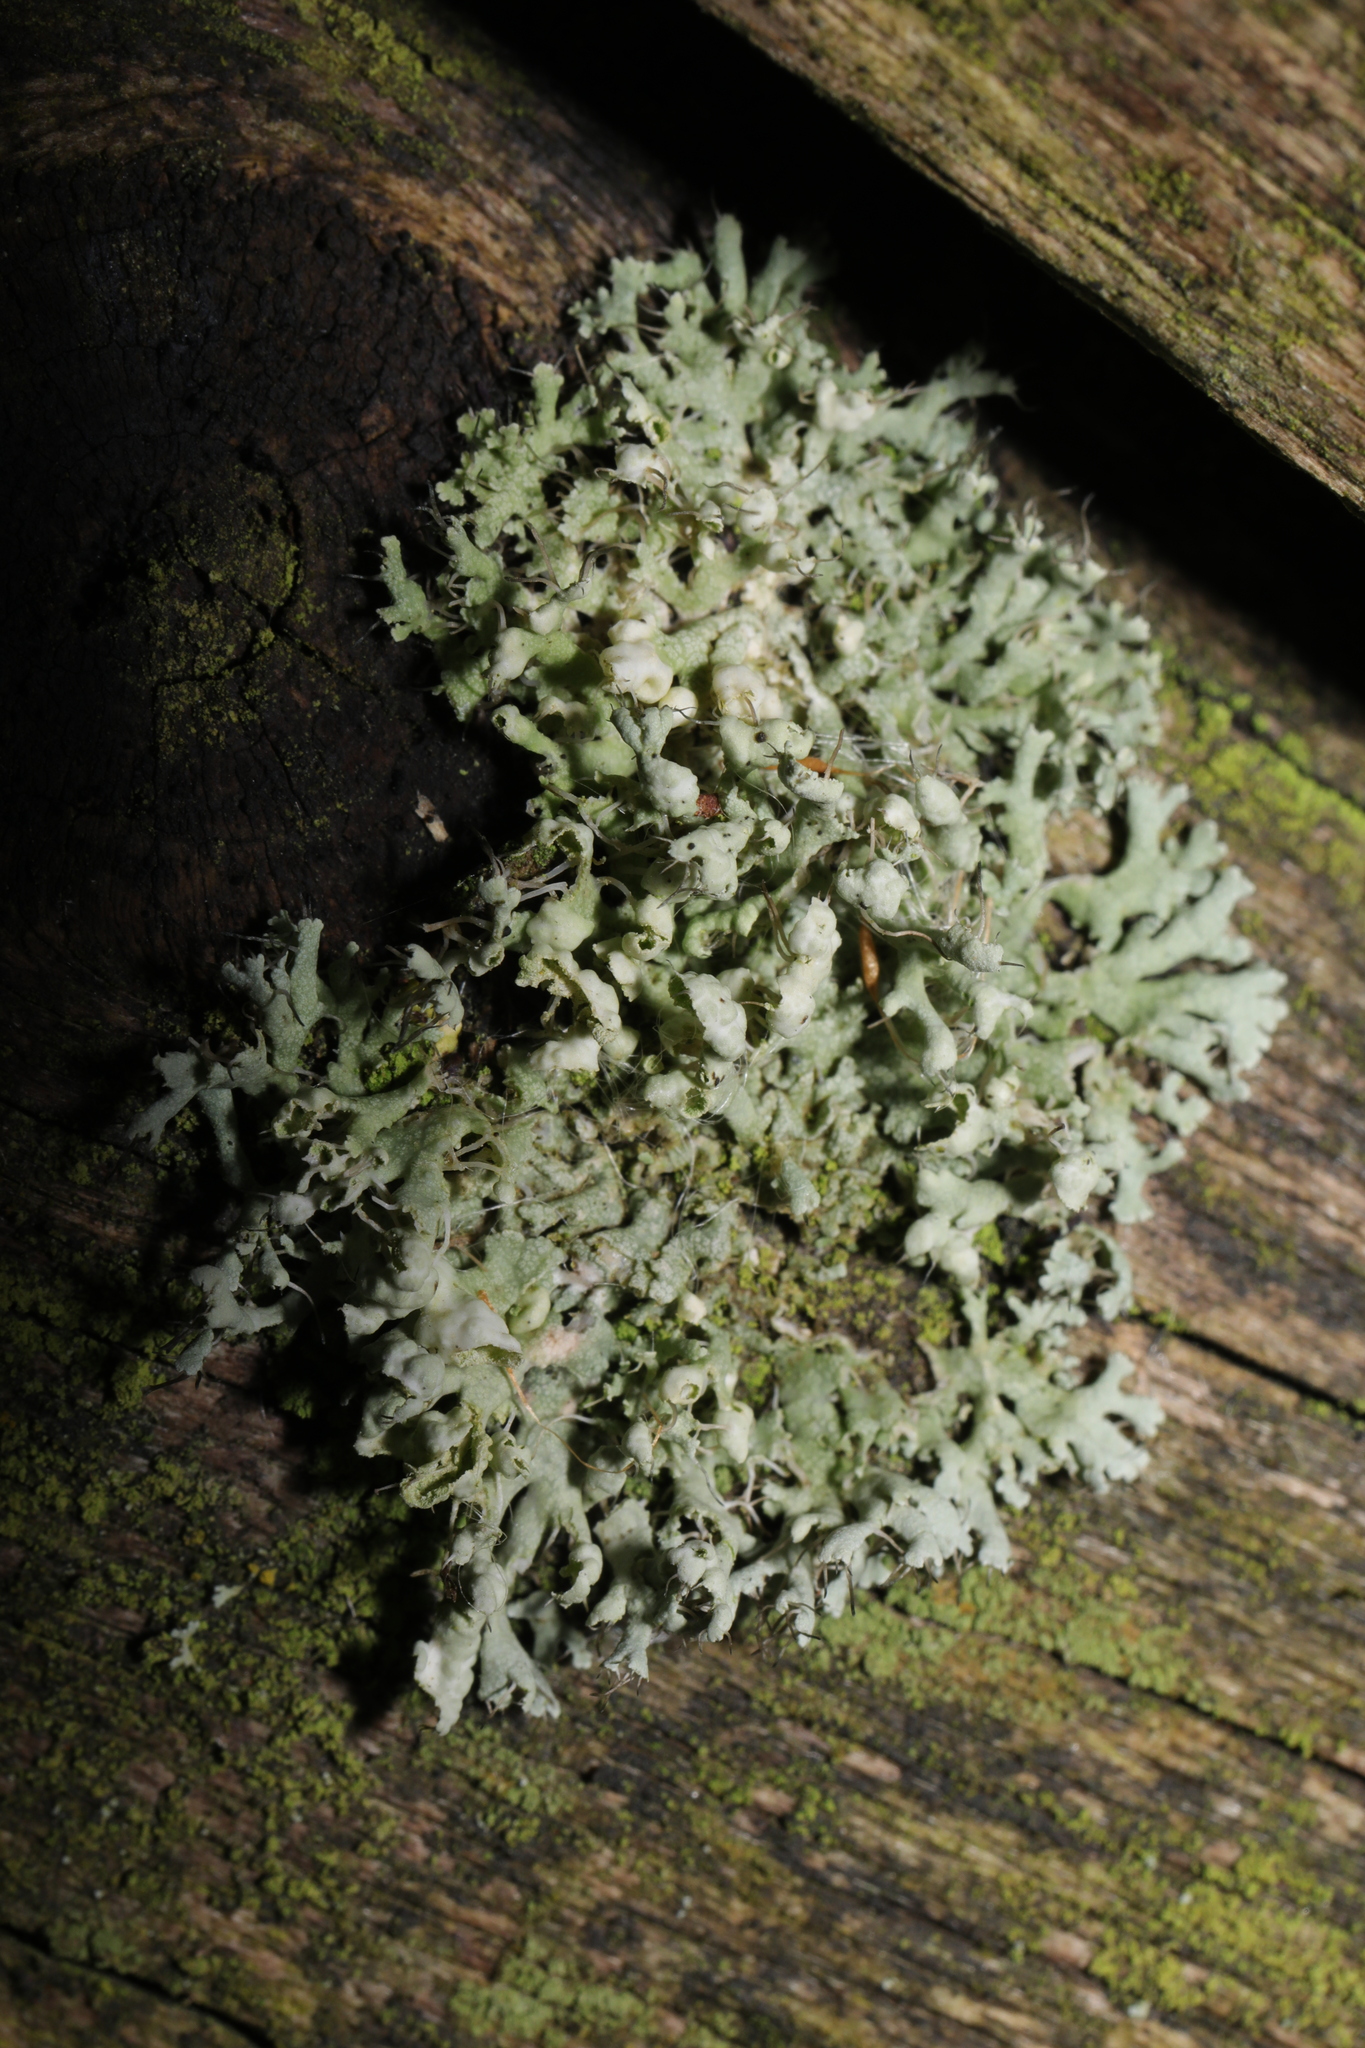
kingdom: Fungi
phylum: Ascomycota
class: Lecanoromycetes
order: Caliciales
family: Physciaceae
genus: Physcia
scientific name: Physcia adscendens
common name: Hooded rosette lichen
